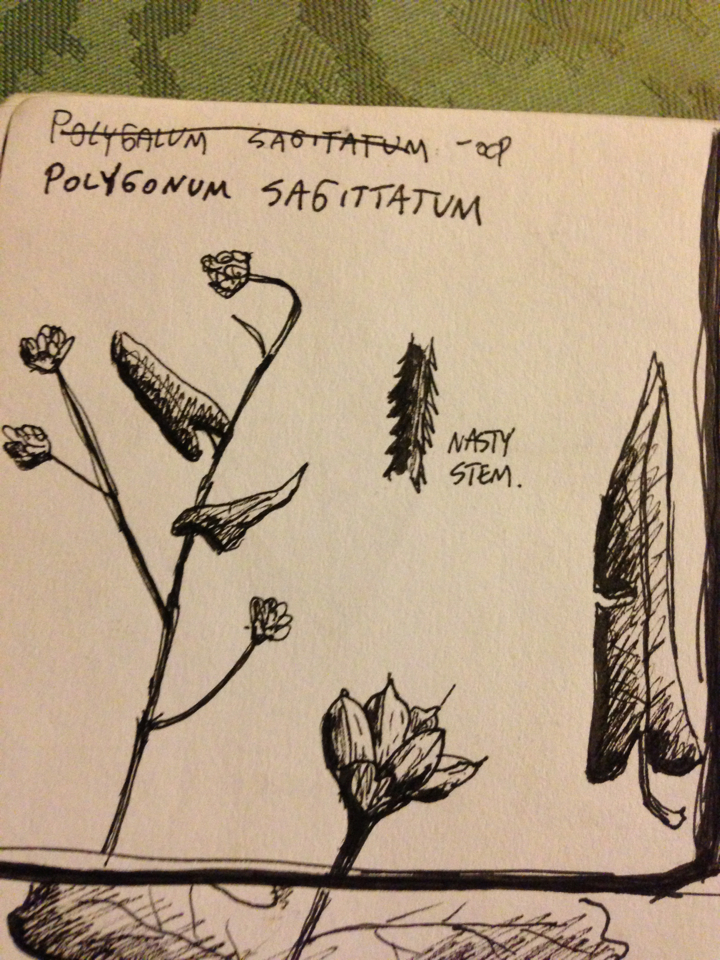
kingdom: Plantae
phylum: Tracheophyta
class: Magnoliopsida
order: Caryophyllales
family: Polygonaceae
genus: Persicaria
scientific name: Persicaria sagittata
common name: American tearthumb
